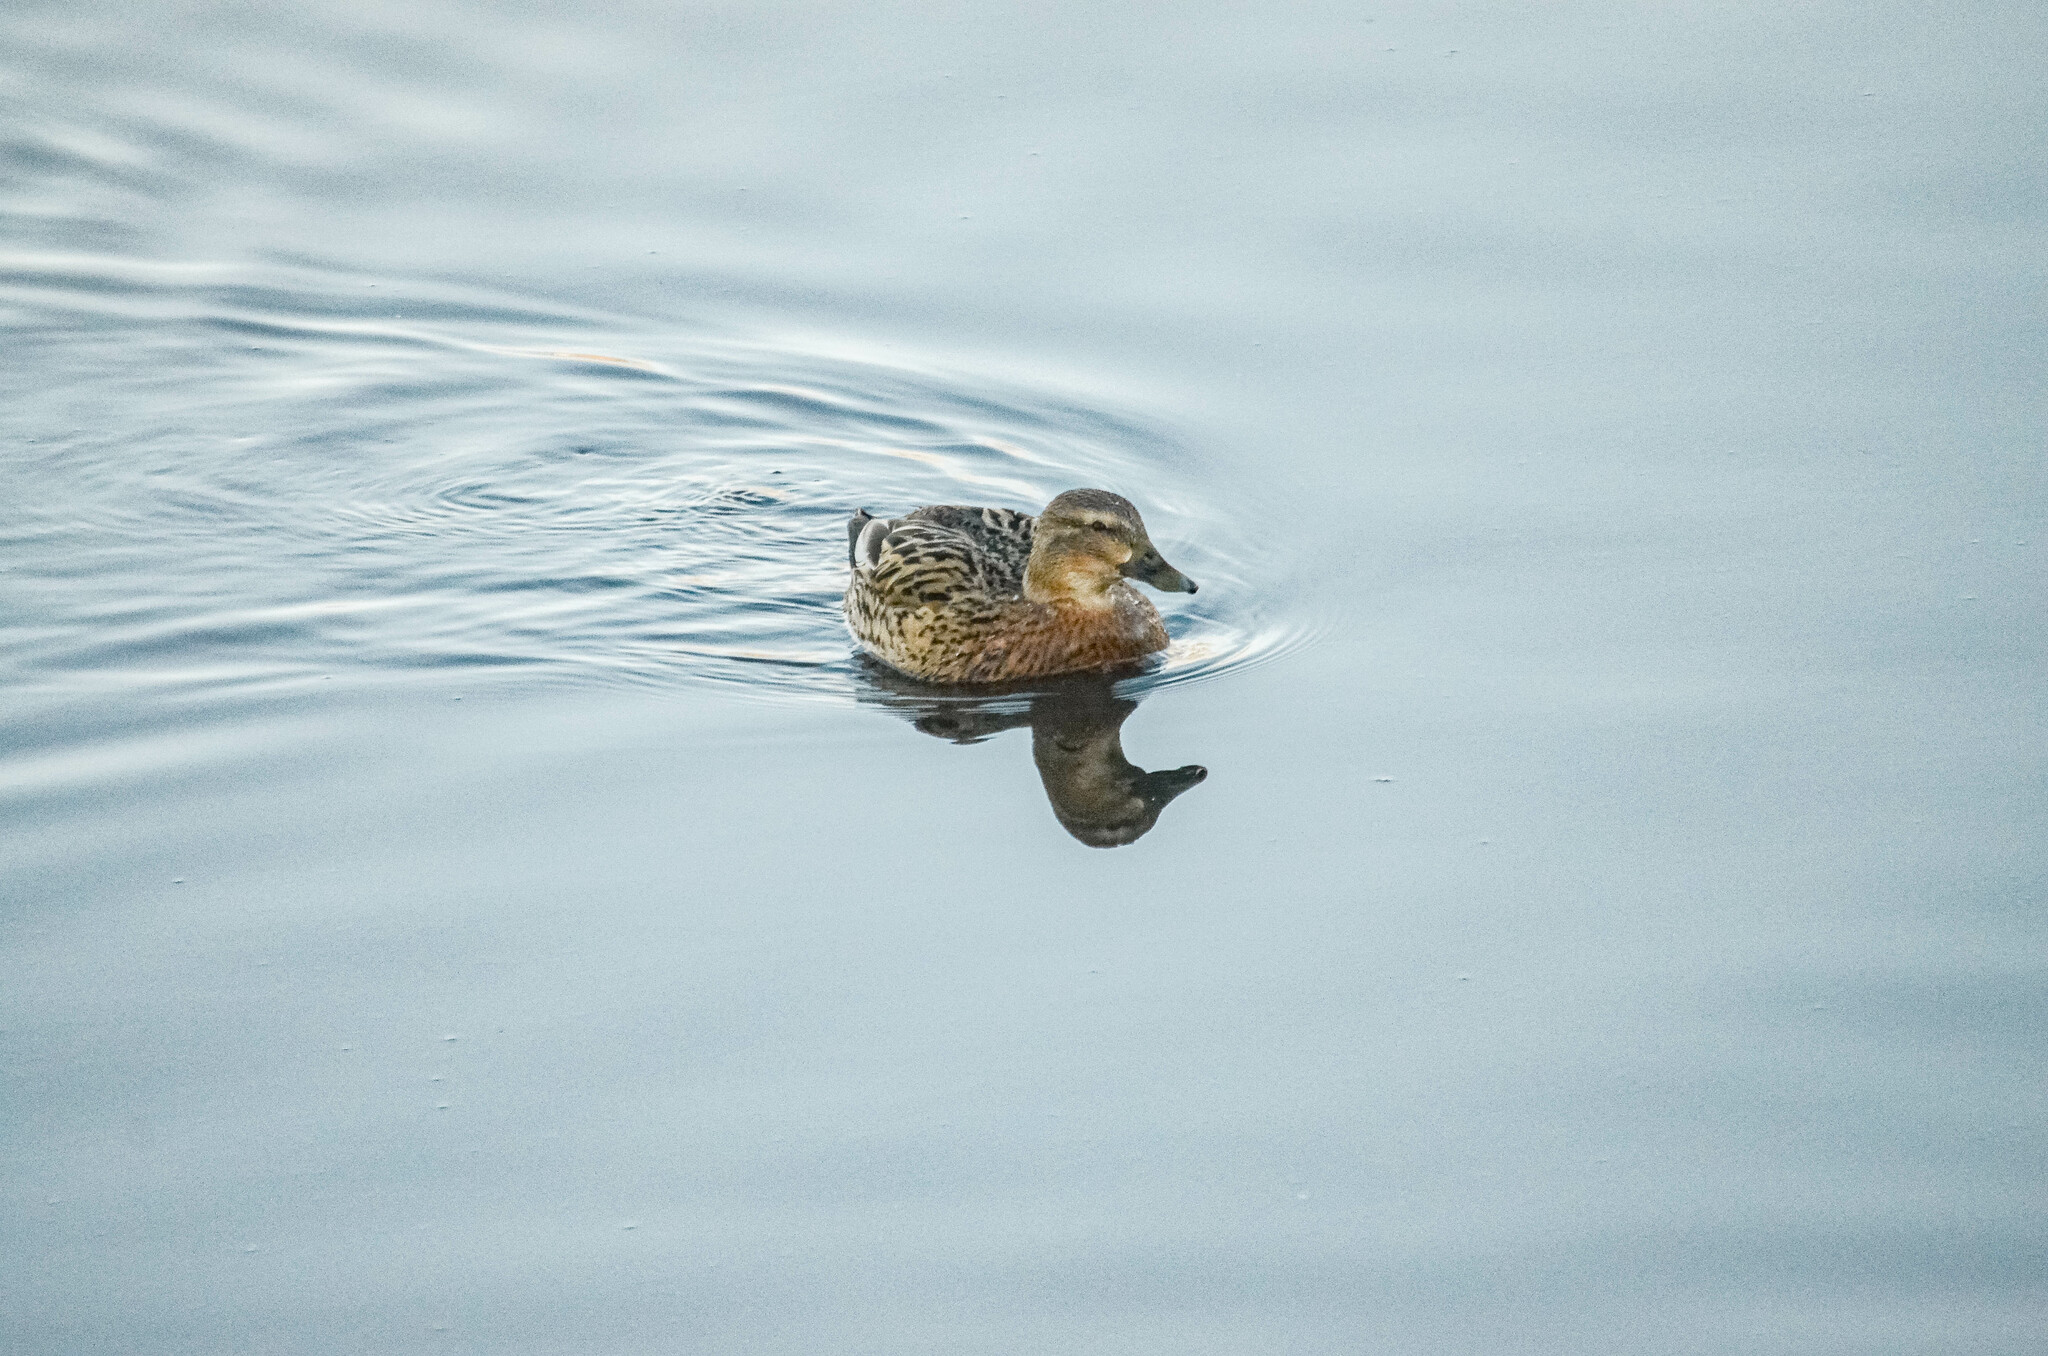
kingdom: Animalia
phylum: Chordata
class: Aves
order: Anseriformes
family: Anatidae
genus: Anas
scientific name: Anas platyrhynchos
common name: Mallard
